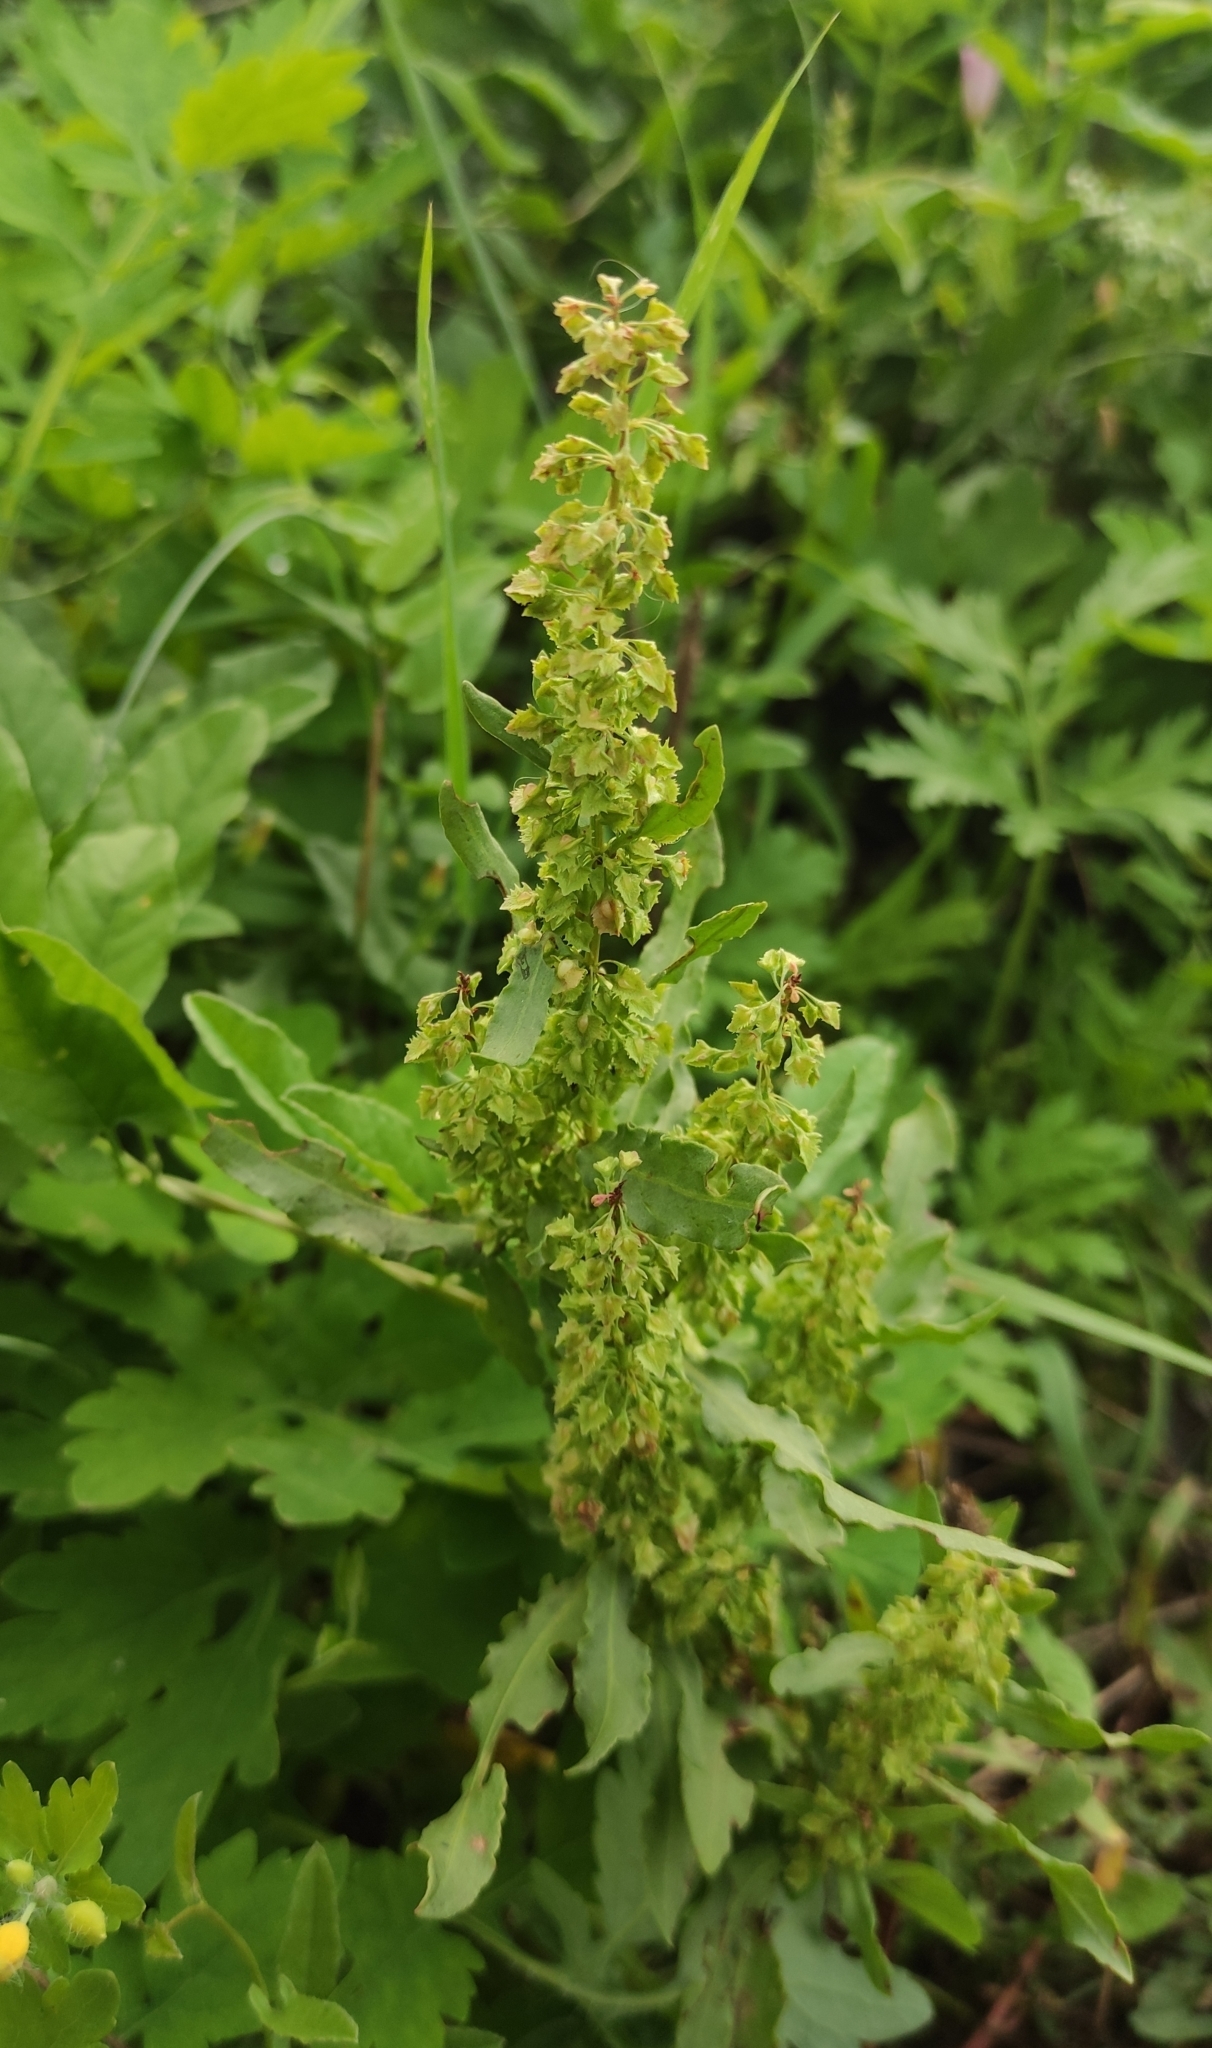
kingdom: Plantae
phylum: Tracheophyta
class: Magnoliopsida
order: Caryophyllales
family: Polygonaceae
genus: Rumex
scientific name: Rumex stenophyllus
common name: Narrowleaf dock
